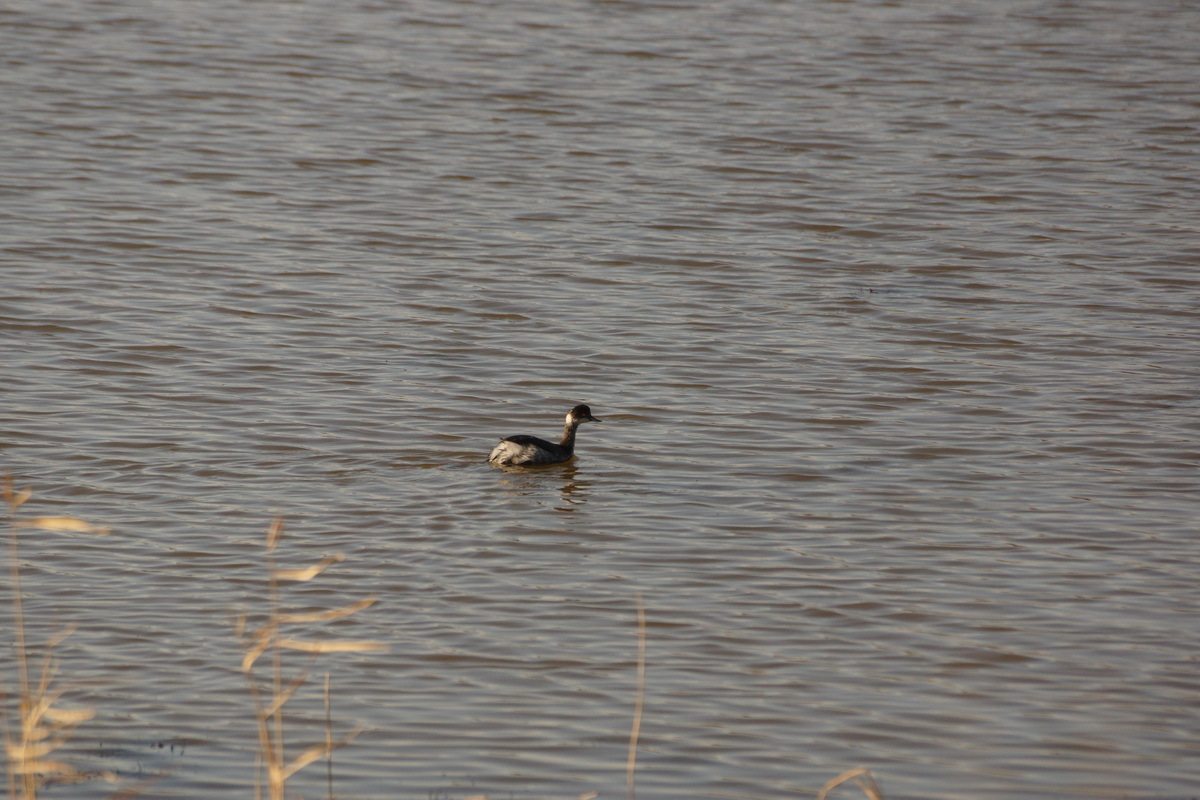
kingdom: Animalia
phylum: Chordata
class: Aves
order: Podicipediformes
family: Podicipedidae
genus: Podiceps
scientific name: Podiceps nigricollis
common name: Black-necked grebe
